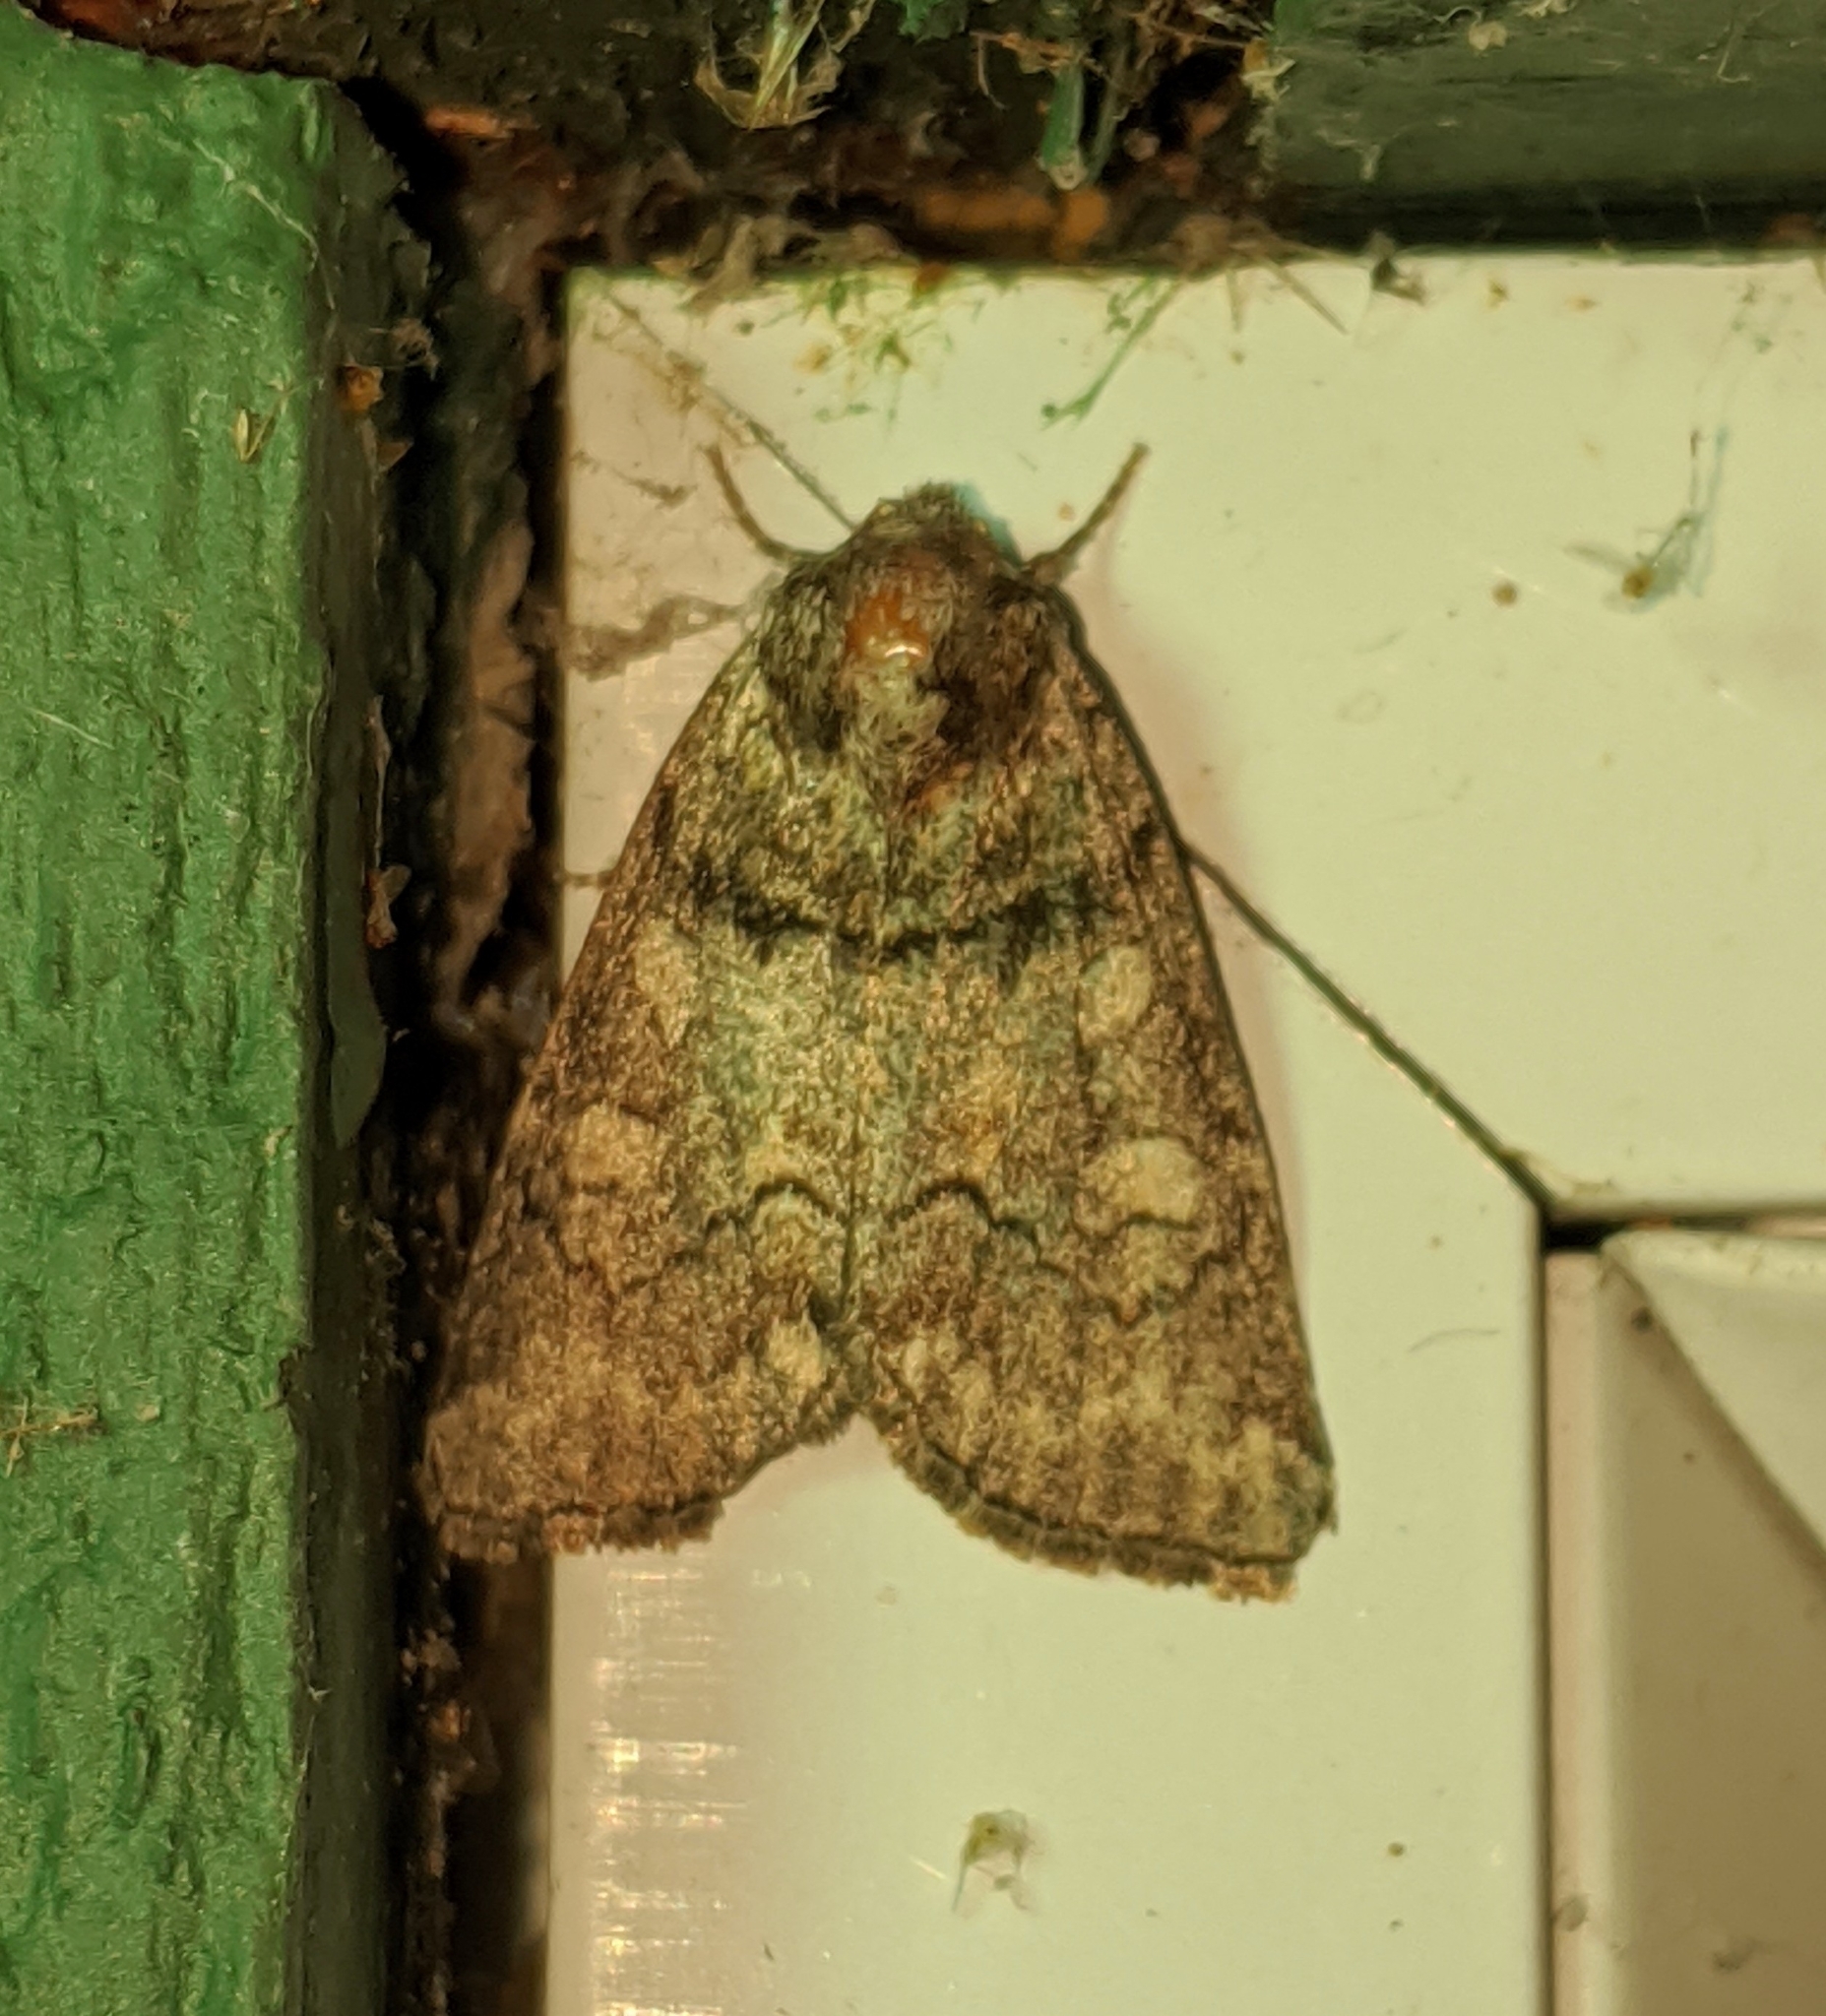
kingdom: Animalia
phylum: Arthropoda
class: Insecta
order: Lepidoptera
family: Noctuidae
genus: Cosmia
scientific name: Cosmia praeacuta
